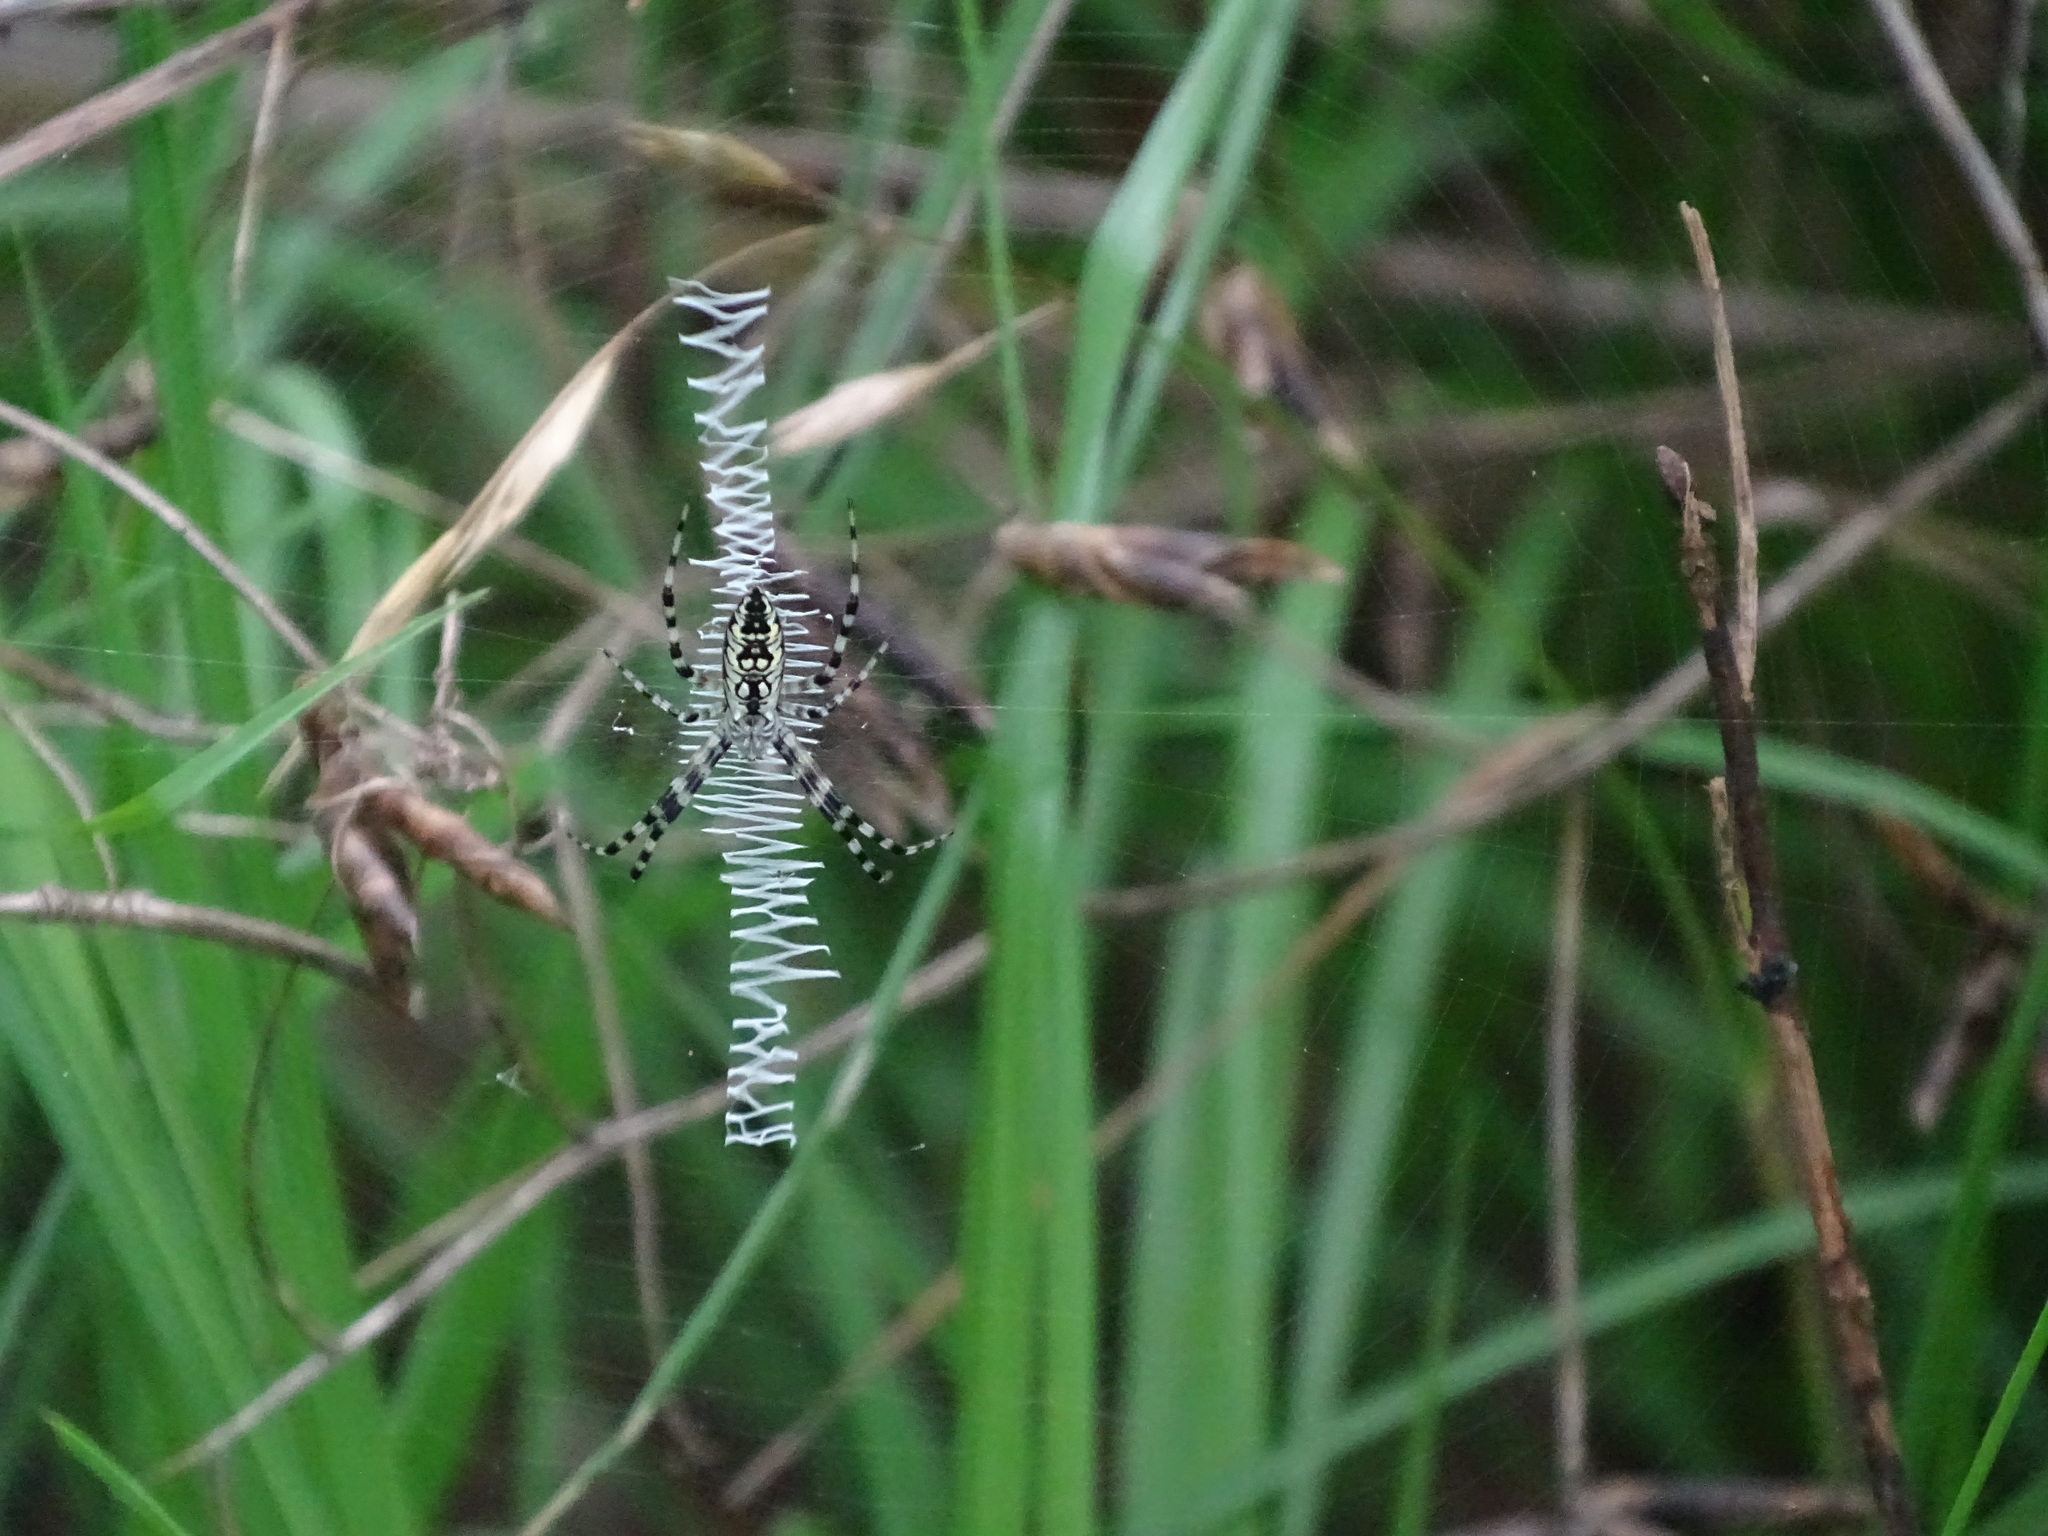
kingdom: Animalia
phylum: Arthropoda
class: Arachnida
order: Araneae
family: Araneidae
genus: Argiope
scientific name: Argiope aurantia
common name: Orb weavers
